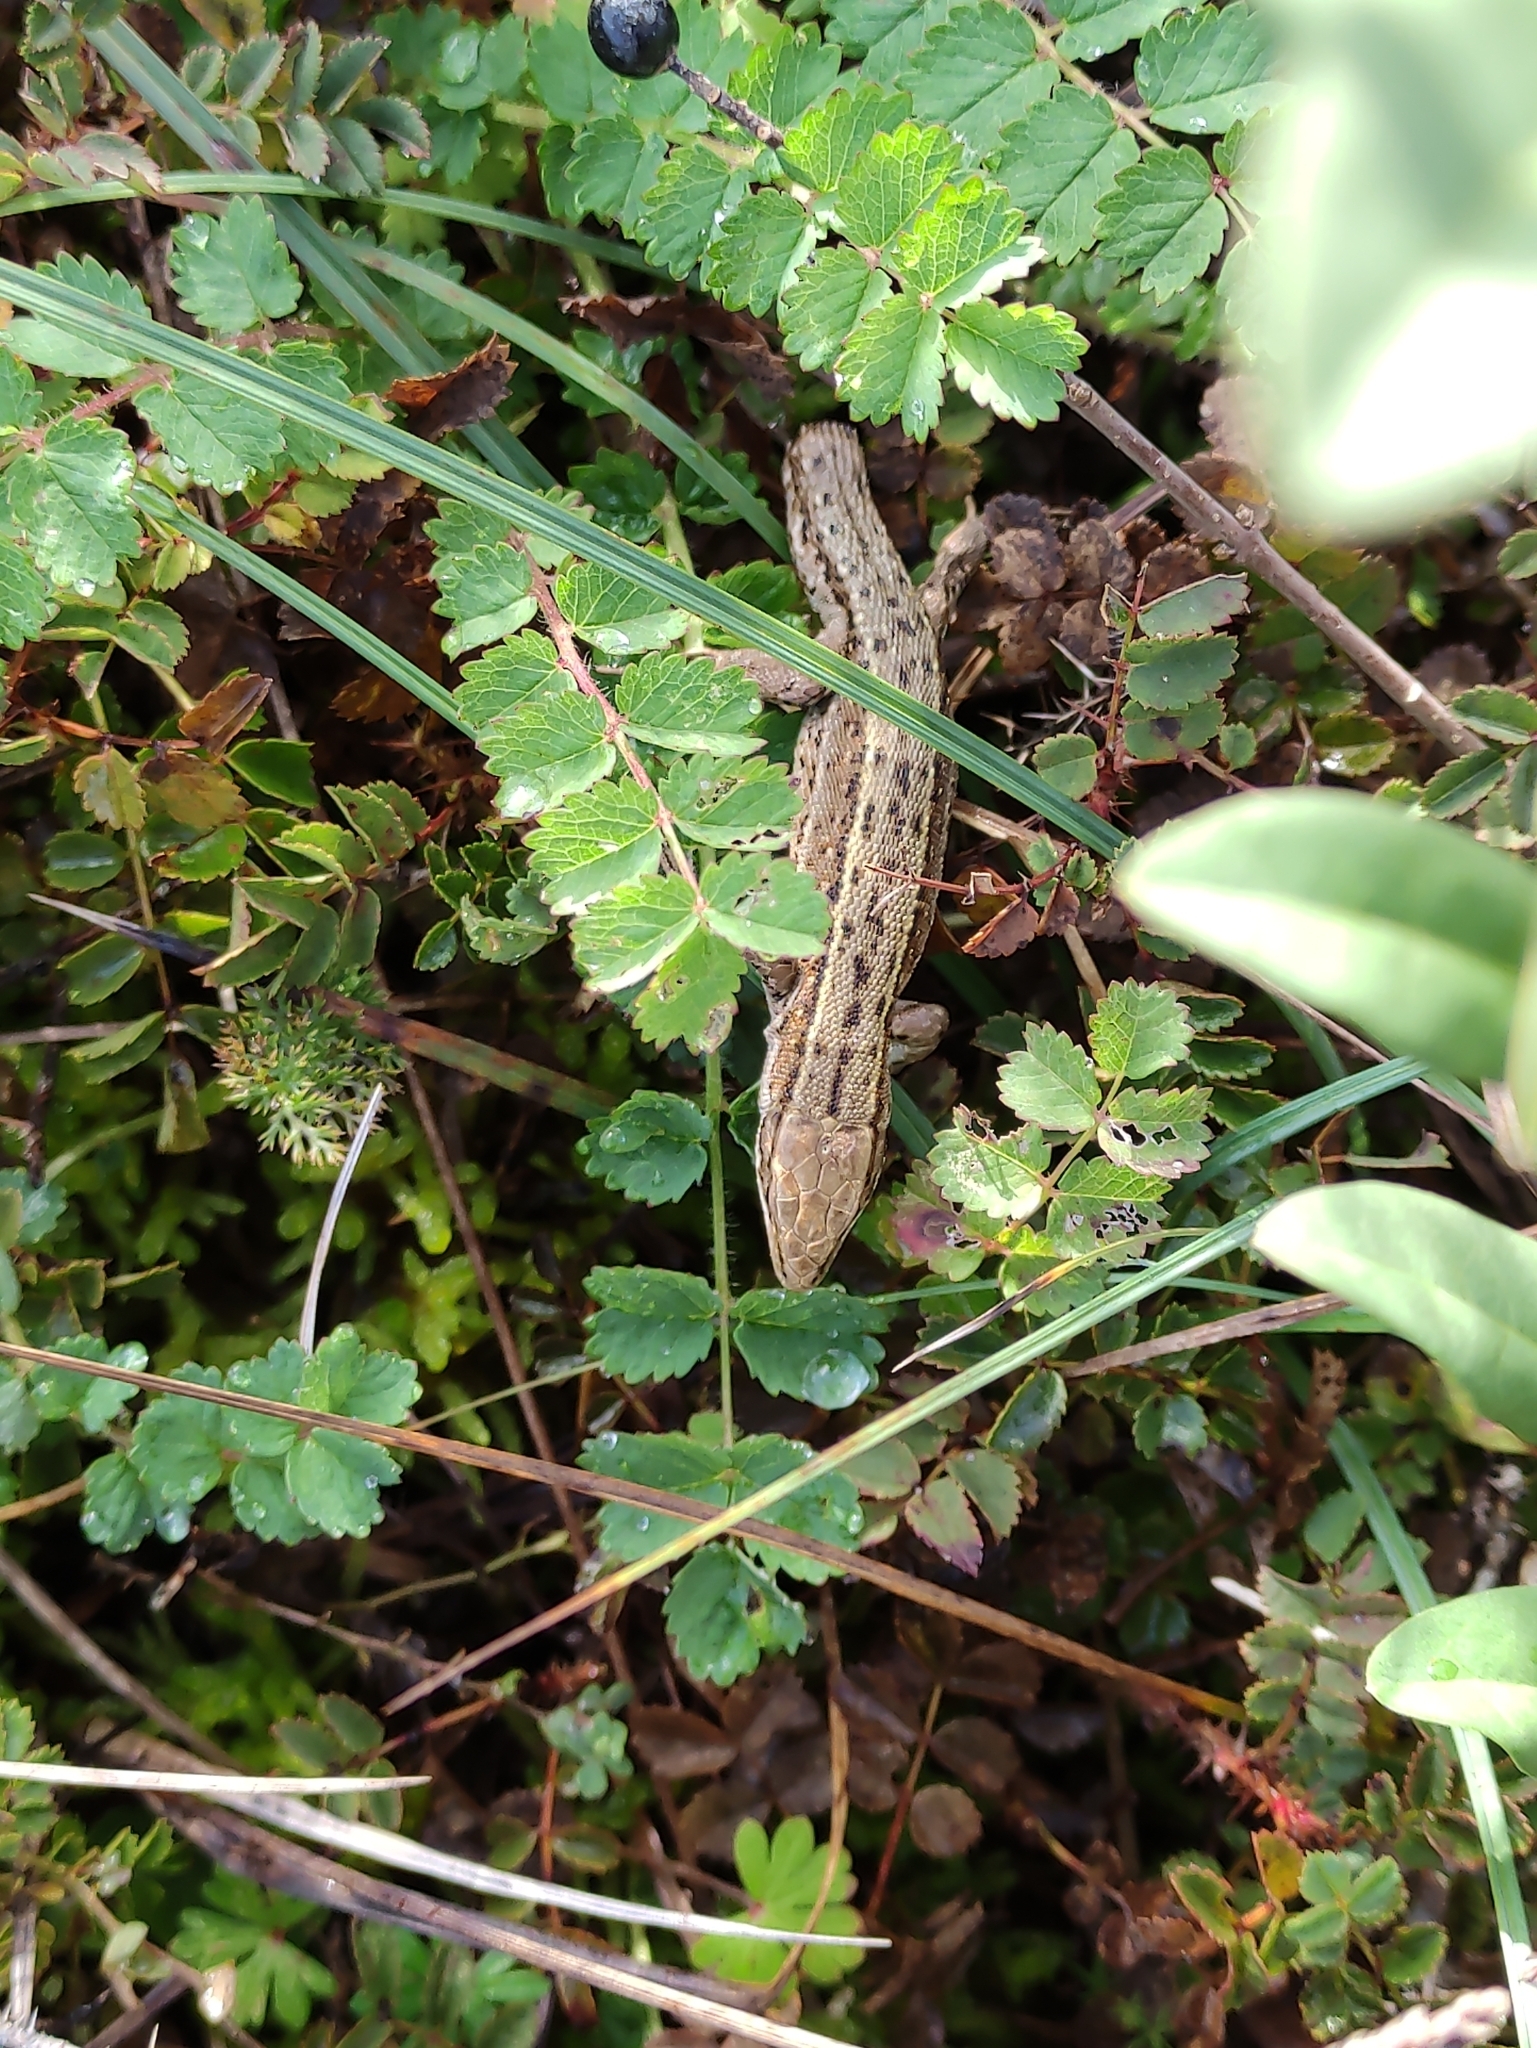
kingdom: Animalia
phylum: Chordata
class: Squamata
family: Lacertidae
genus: Zootoca
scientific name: Zootoca vivipara
